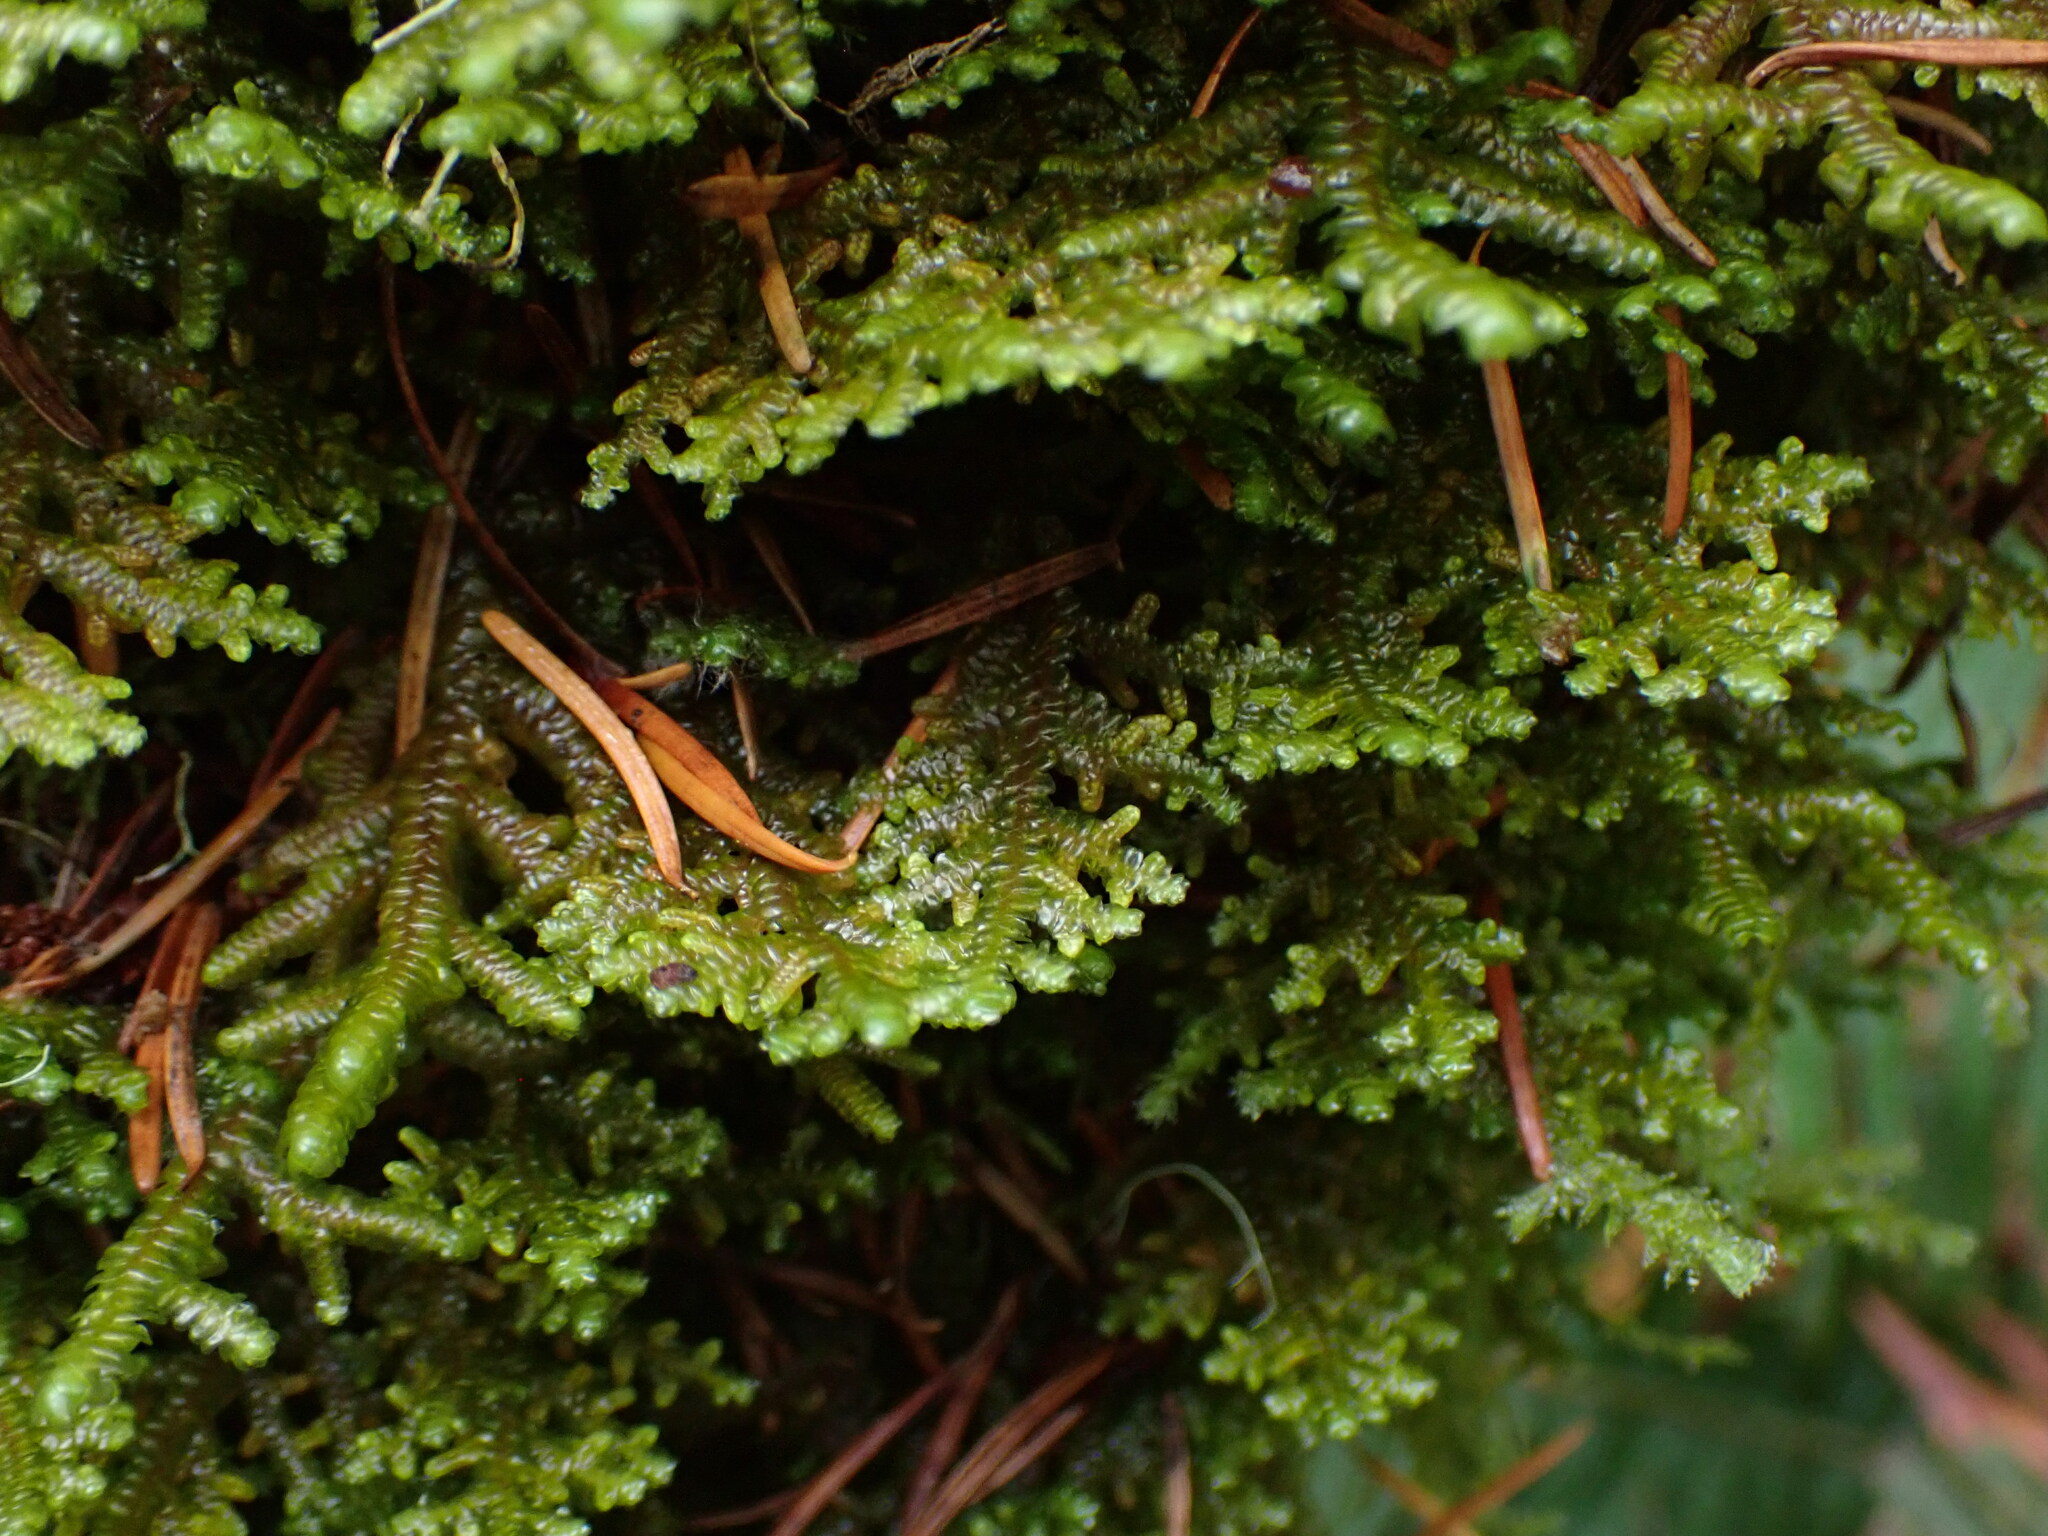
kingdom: Plantae
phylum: Marchantiophyta
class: Jungermanniopsida
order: Porellales
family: Porellaceae
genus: Porella
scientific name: Porella navicularis
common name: Tree ruffle liverwort
